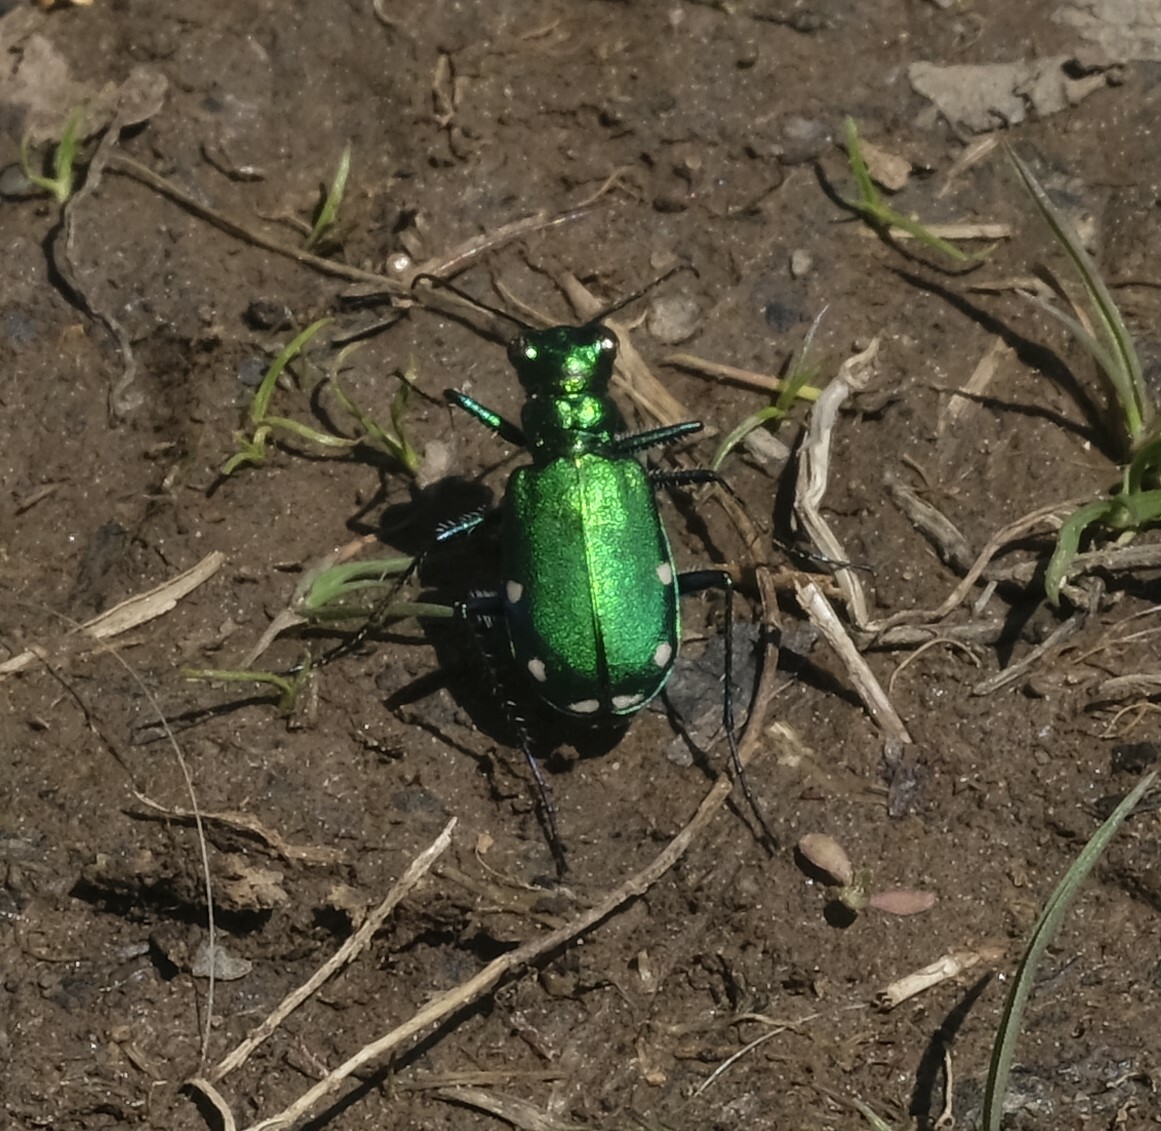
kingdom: Animalia
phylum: Arthropoda
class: Insecta
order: Coleoptera
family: Carabidae
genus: Cicindela
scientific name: Cicindela sexguttata
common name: Six-spotted tiger beetle
